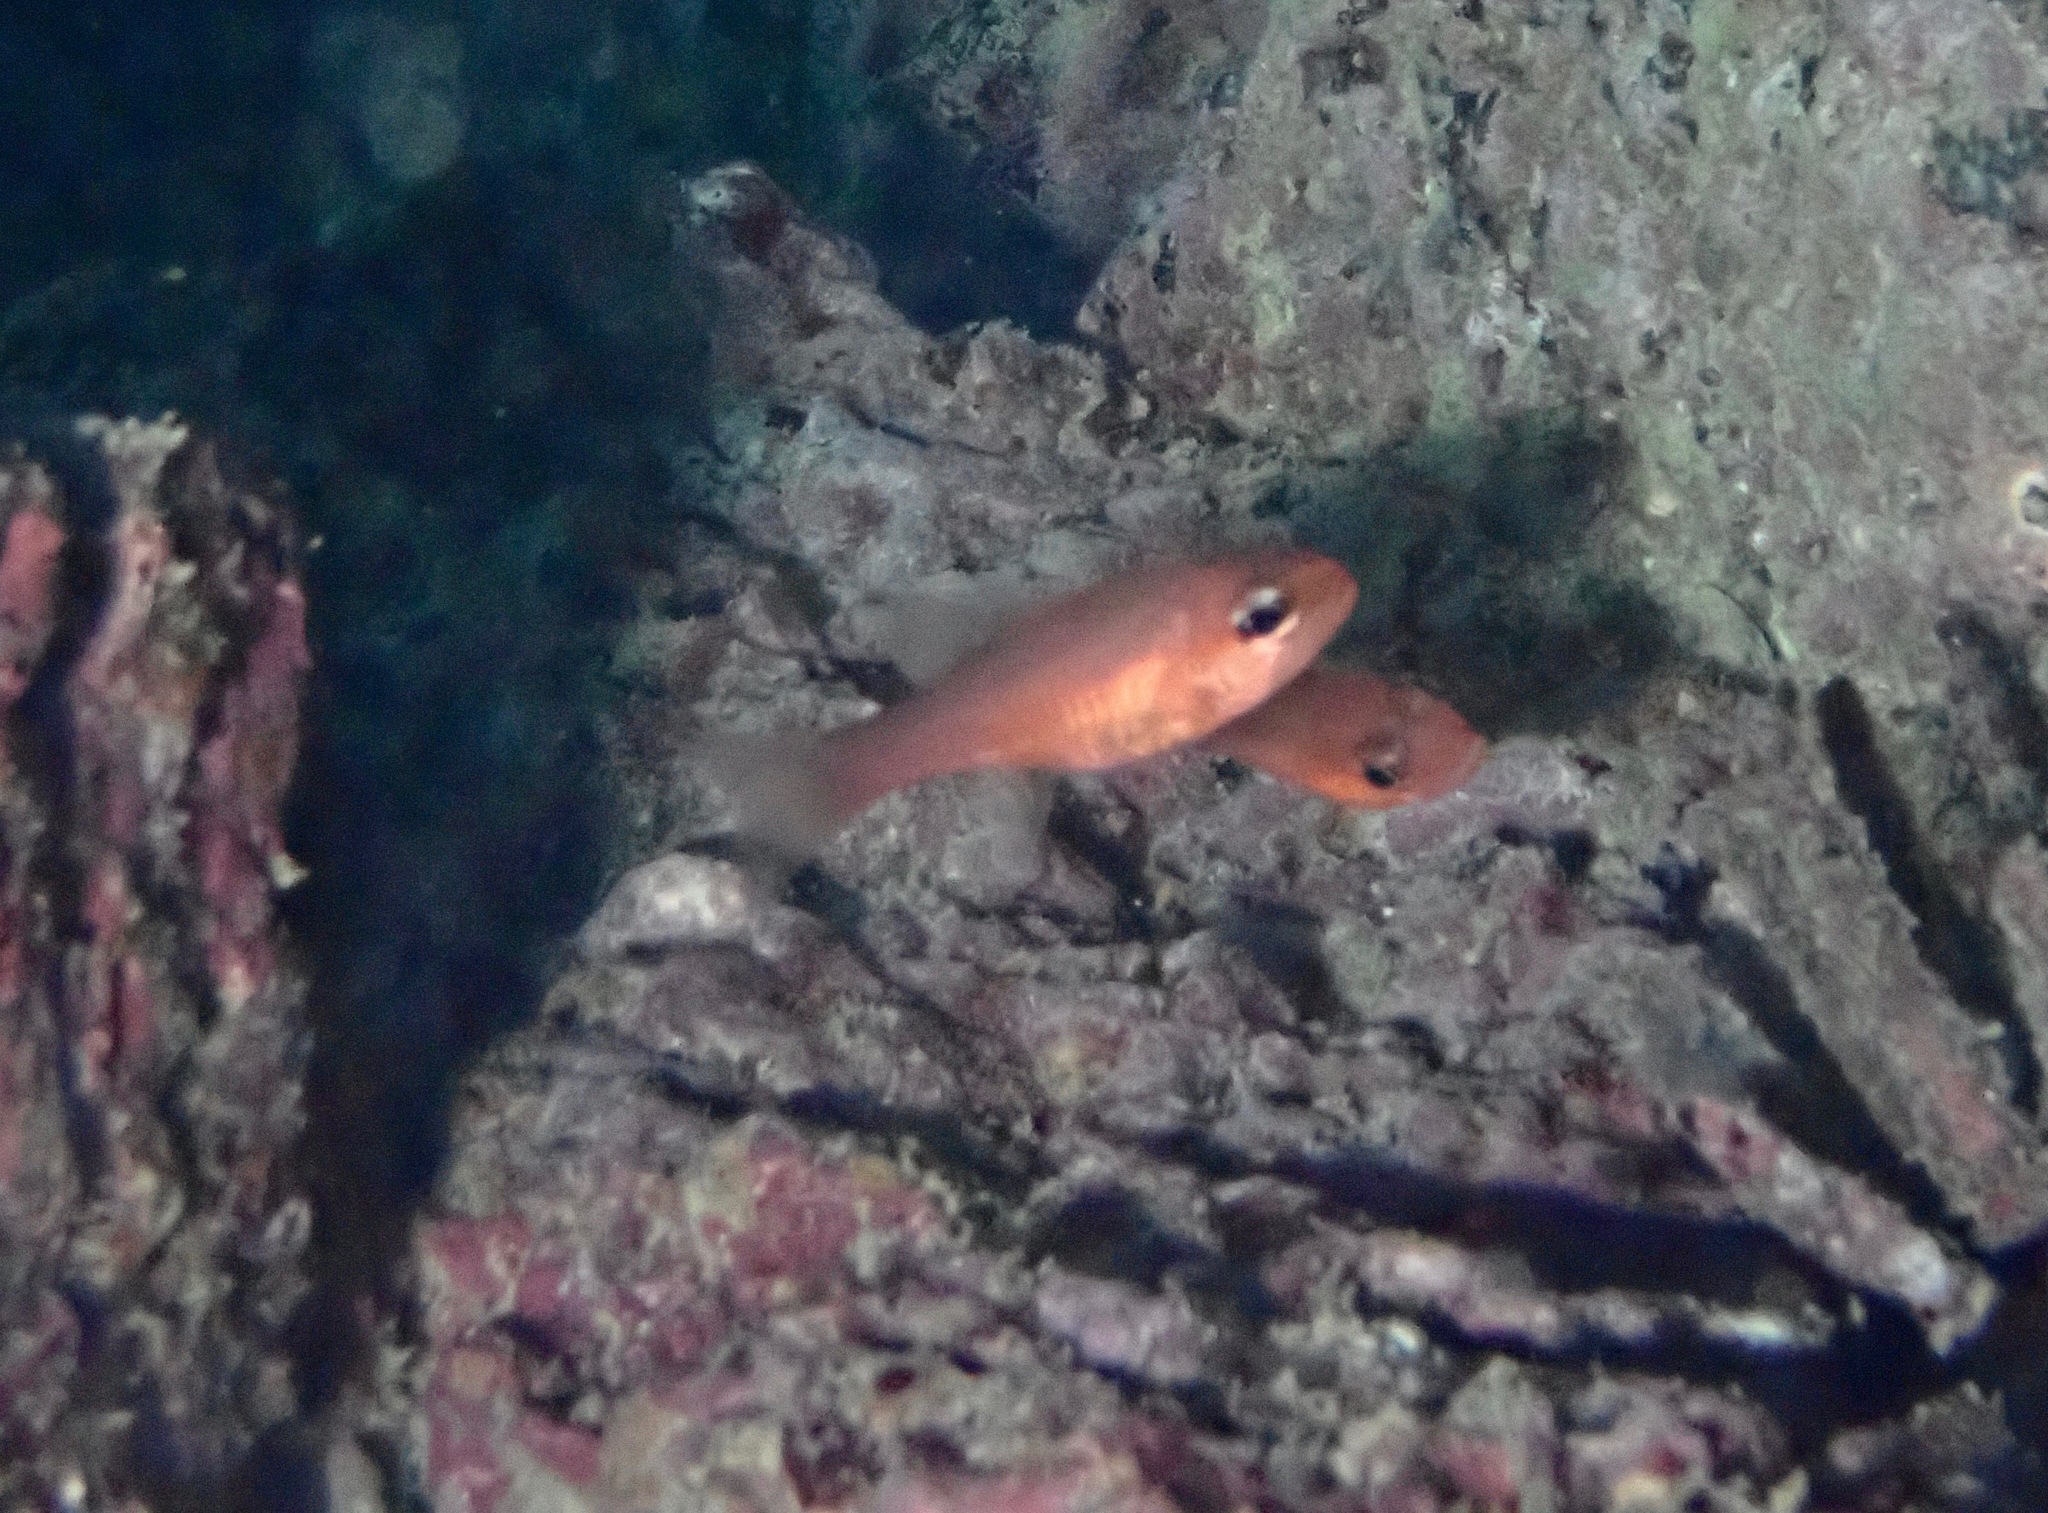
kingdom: Animalia
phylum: Chordata
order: Perciformes
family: Apogonidae
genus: Apogon
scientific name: Apogon atradorsatus
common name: Blacktip cardinalfish
